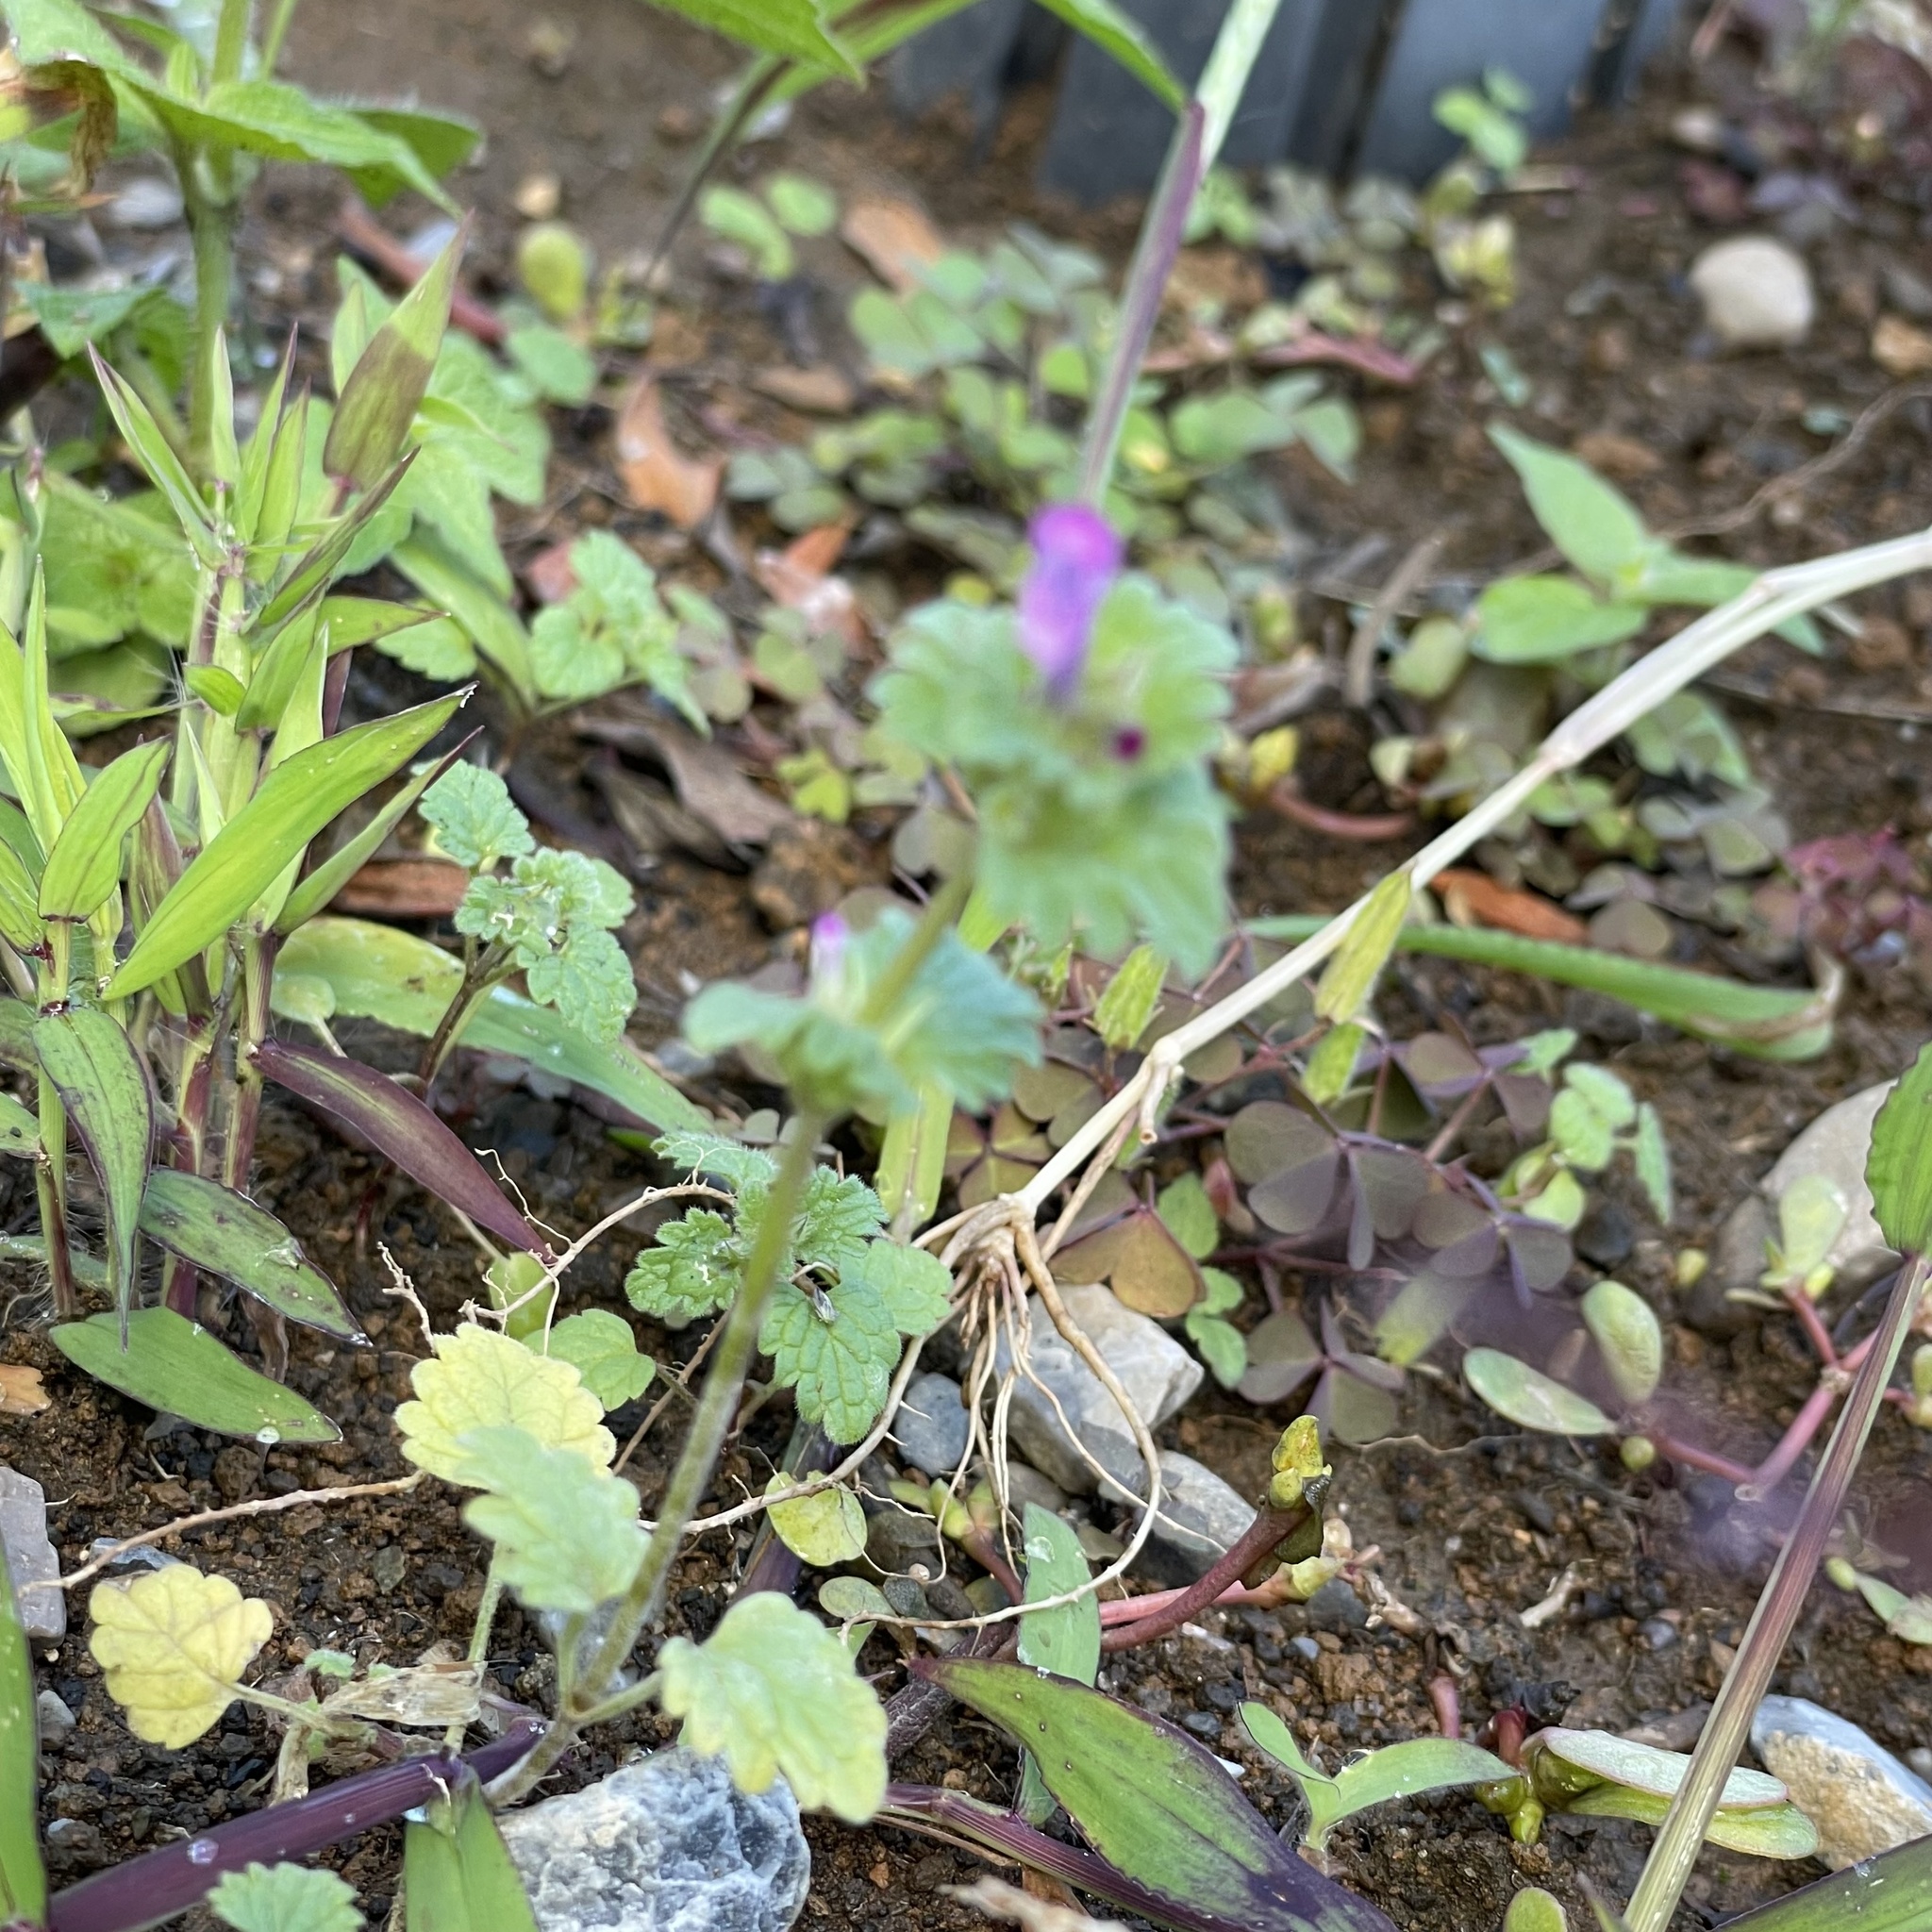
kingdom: Plantae
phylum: Tracheophyta
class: Magnoliopsida
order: Lamiales
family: Lamiaceae
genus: Lamium
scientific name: Lamium amplexicaule
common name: Henbit dead-nettle
